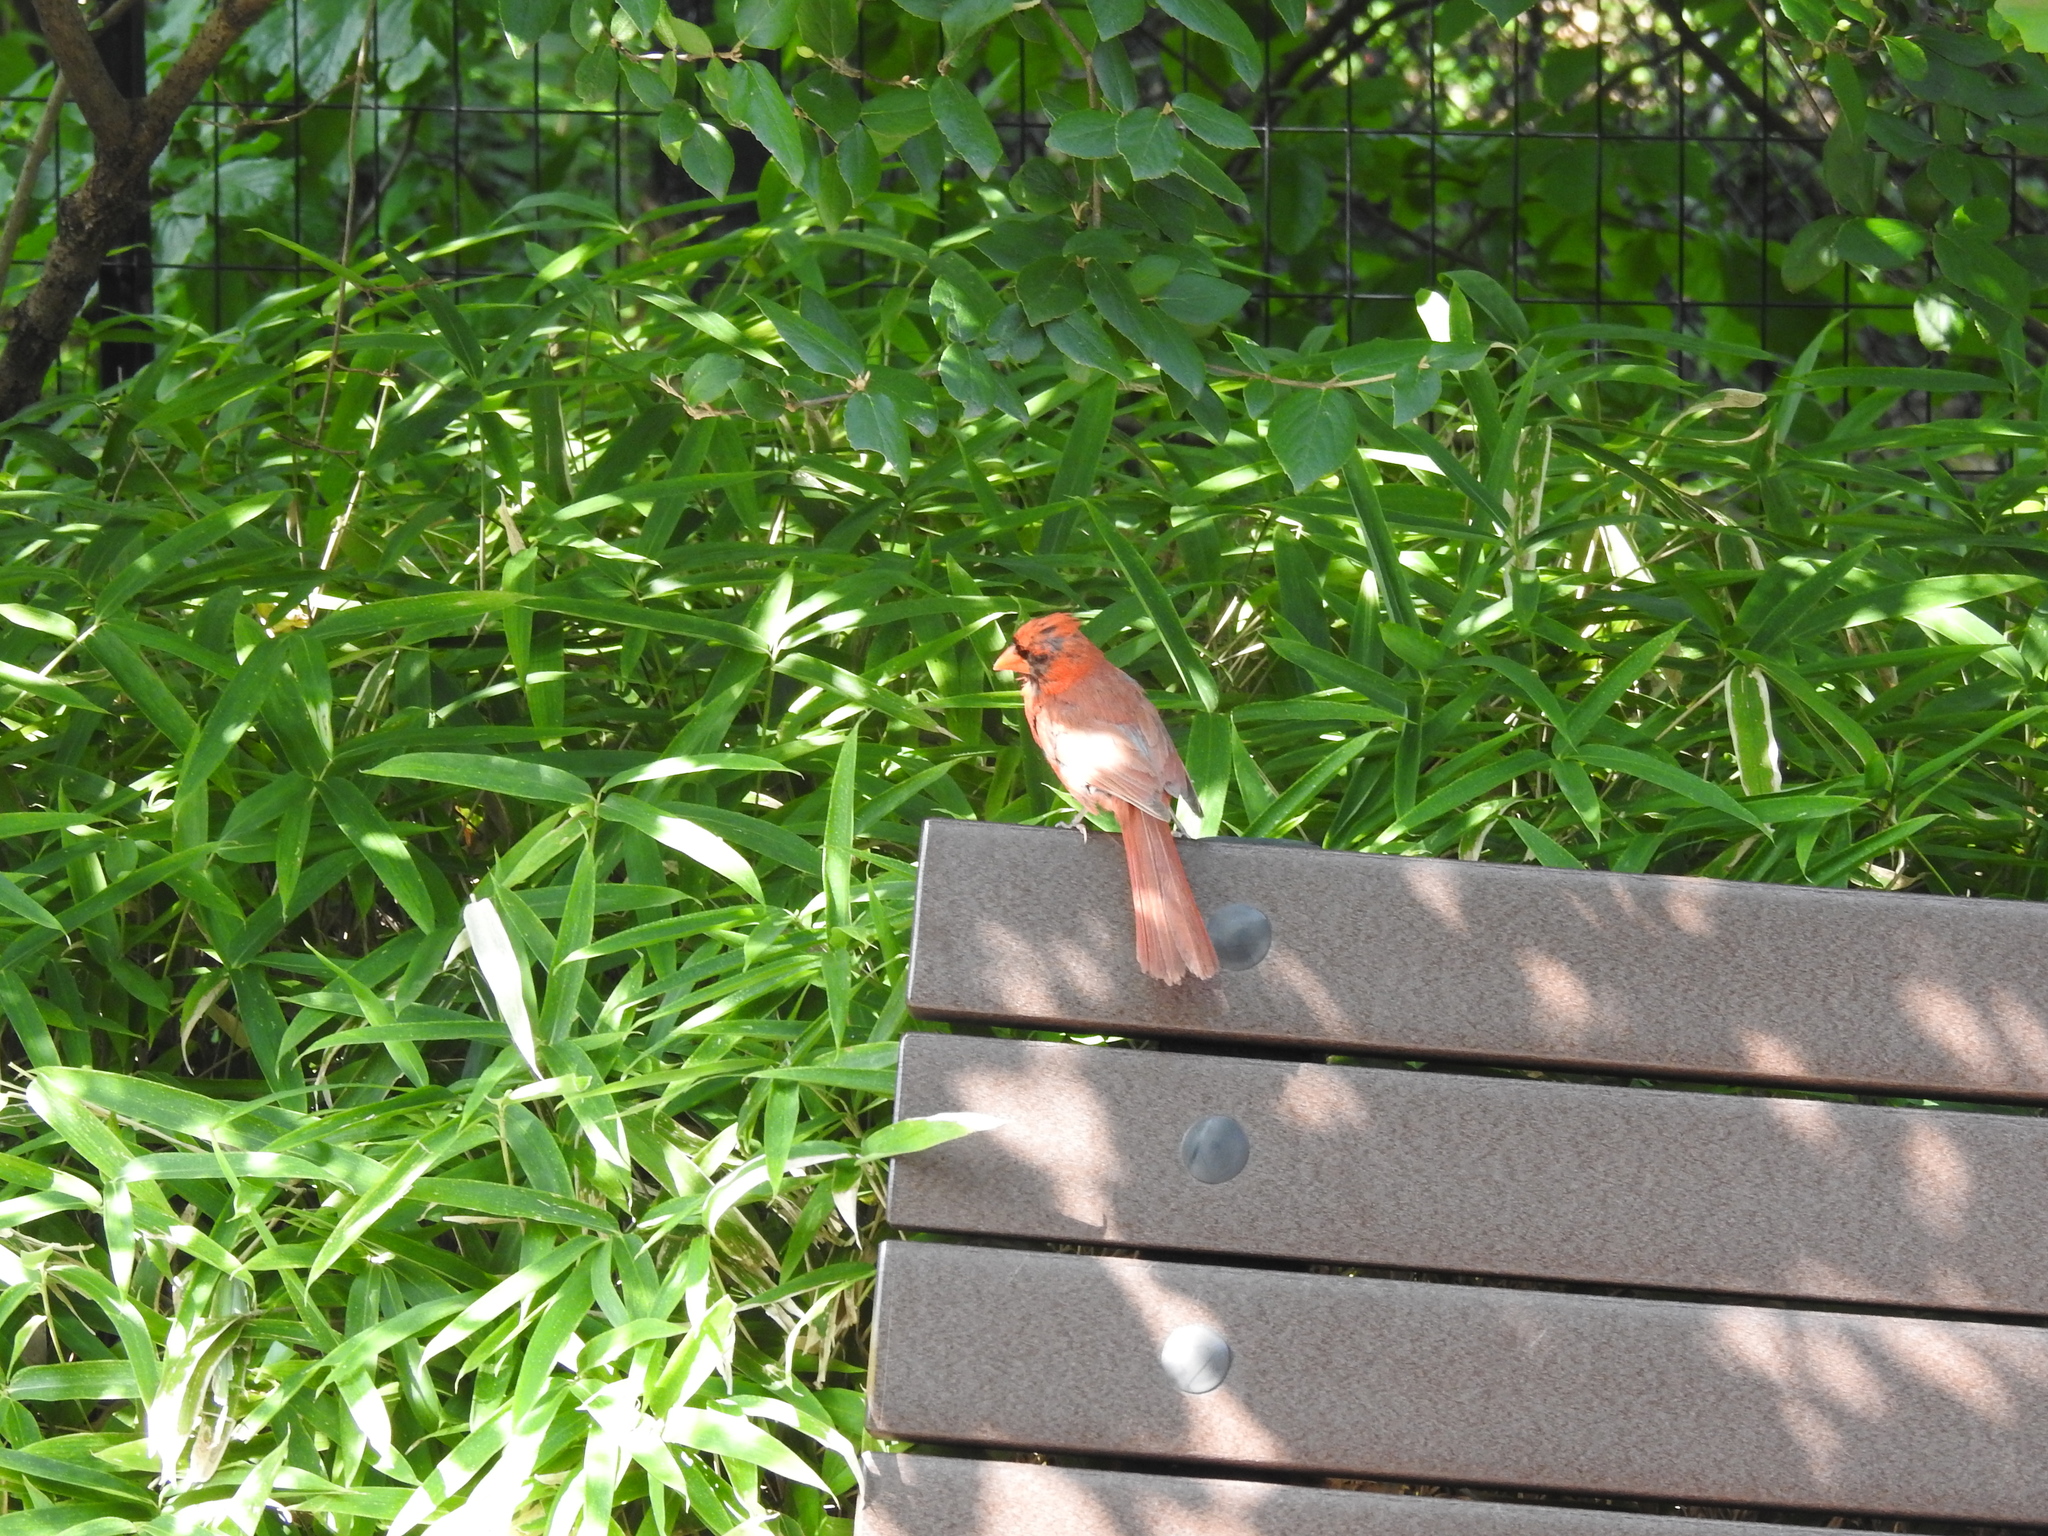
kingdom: Animalia
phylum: Chordata
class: Aves
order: Passeriformes
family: Cardinalidae
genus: Cardinalis
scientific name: Cardinalis cardinalis
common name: Northern cardinal
